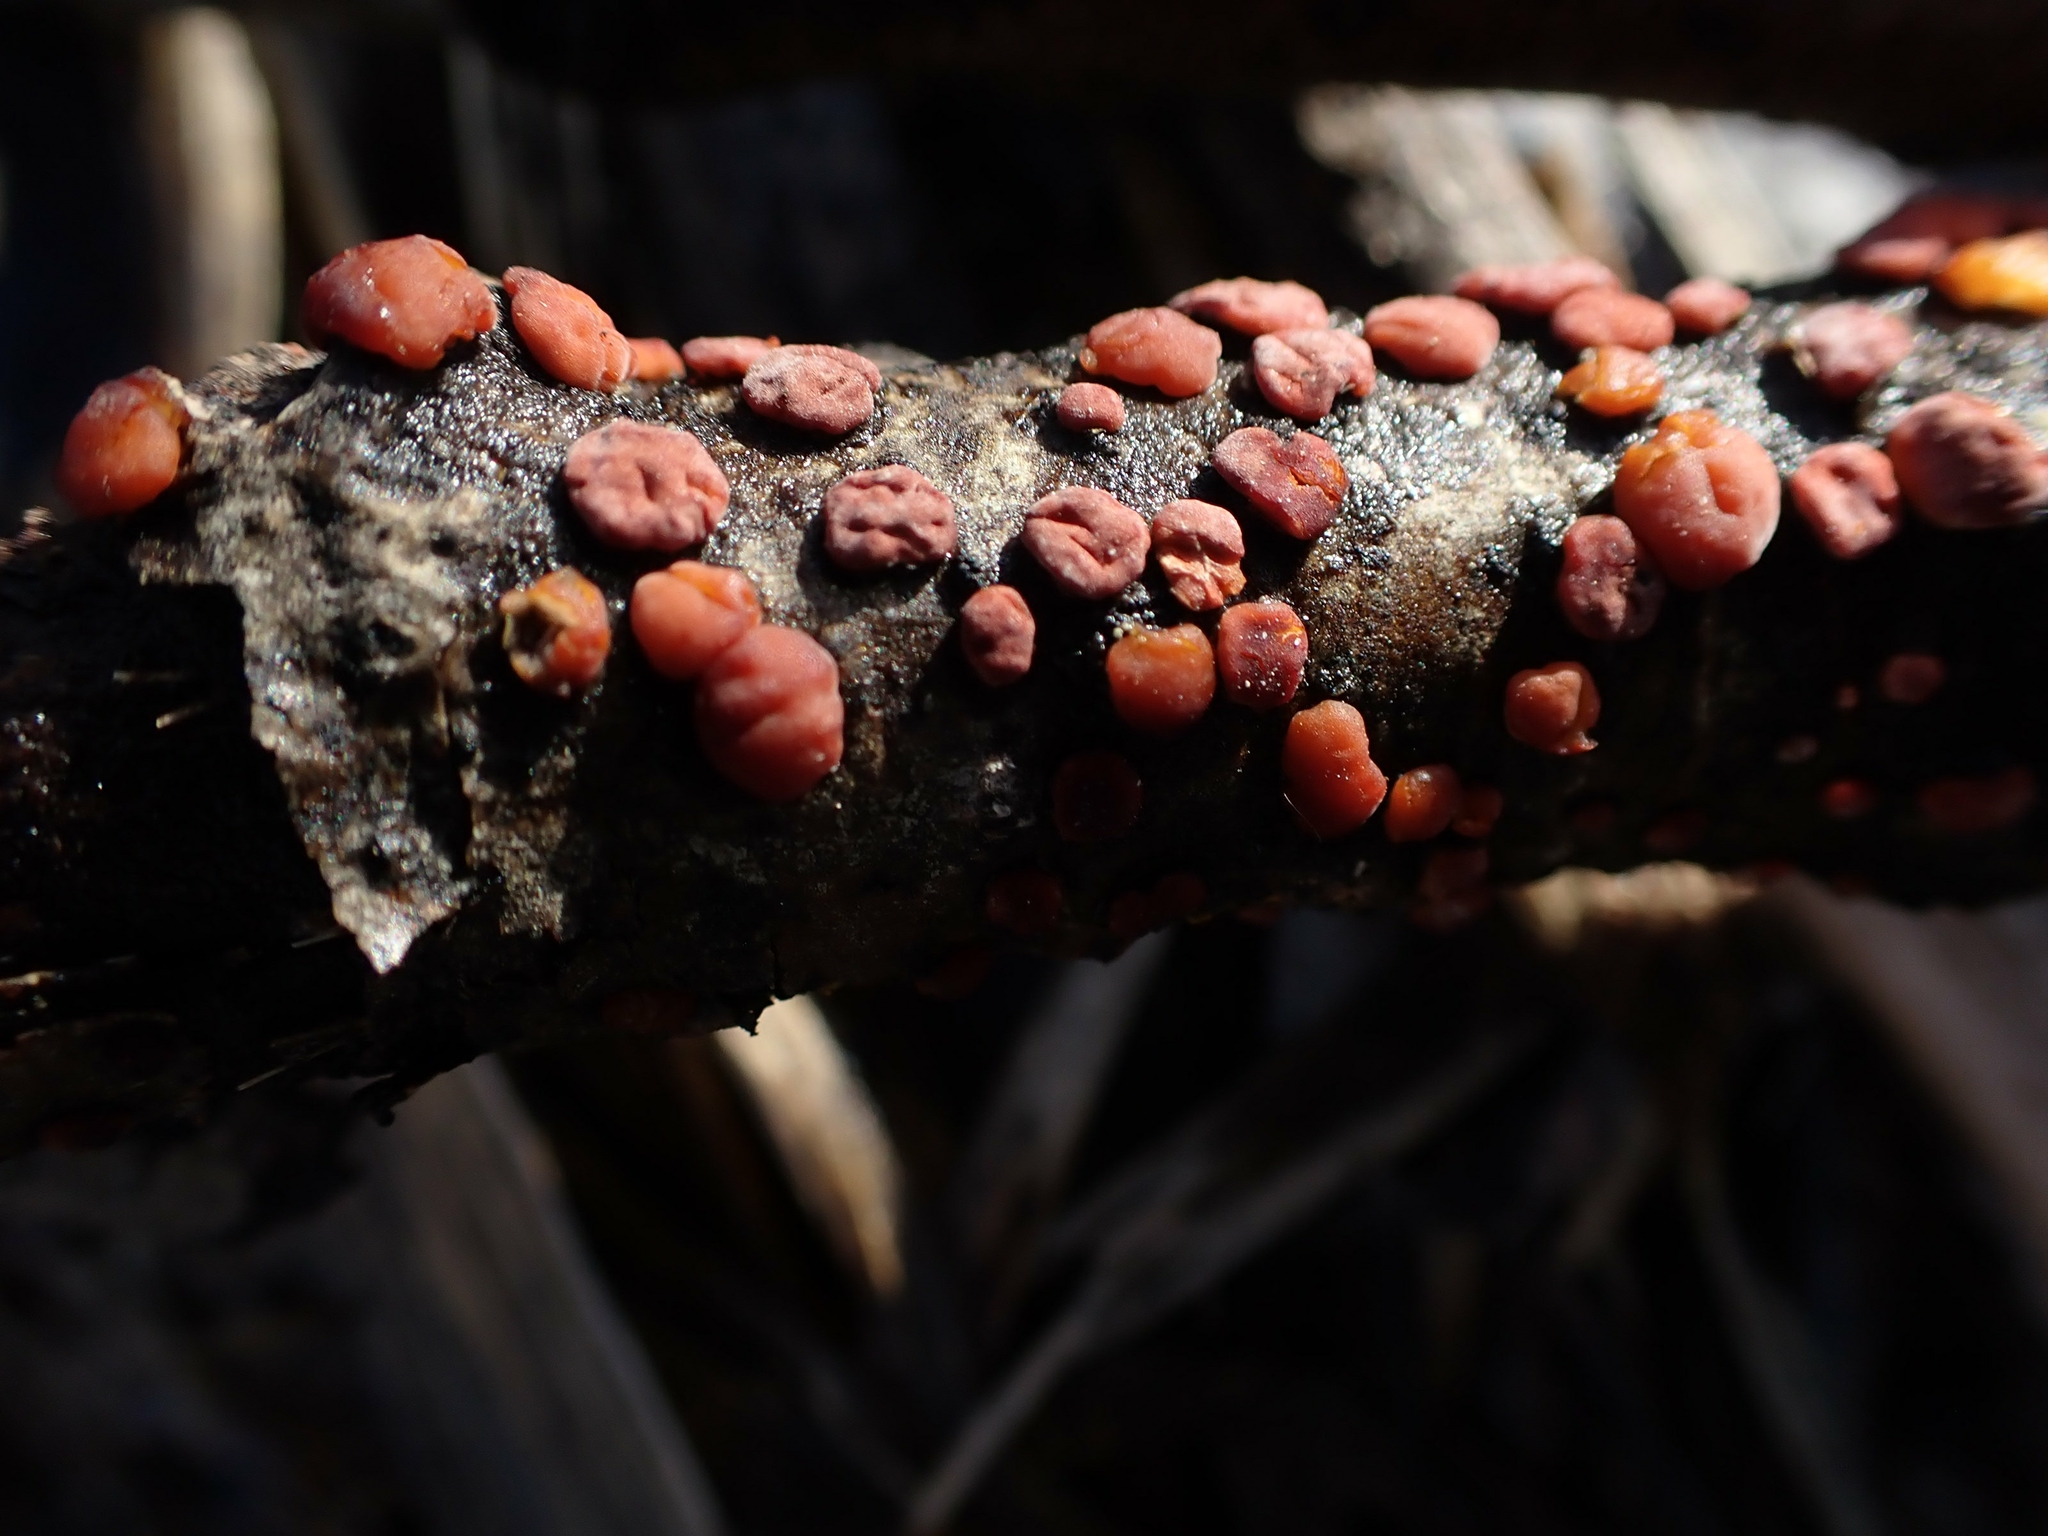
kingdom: Fungi
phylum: Basidiomycota
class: Agaricomycetes
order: Russulales
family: Peniophoraceae
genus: Peniophora
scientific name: Peniophora rufa
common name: Red tree brain fungus
